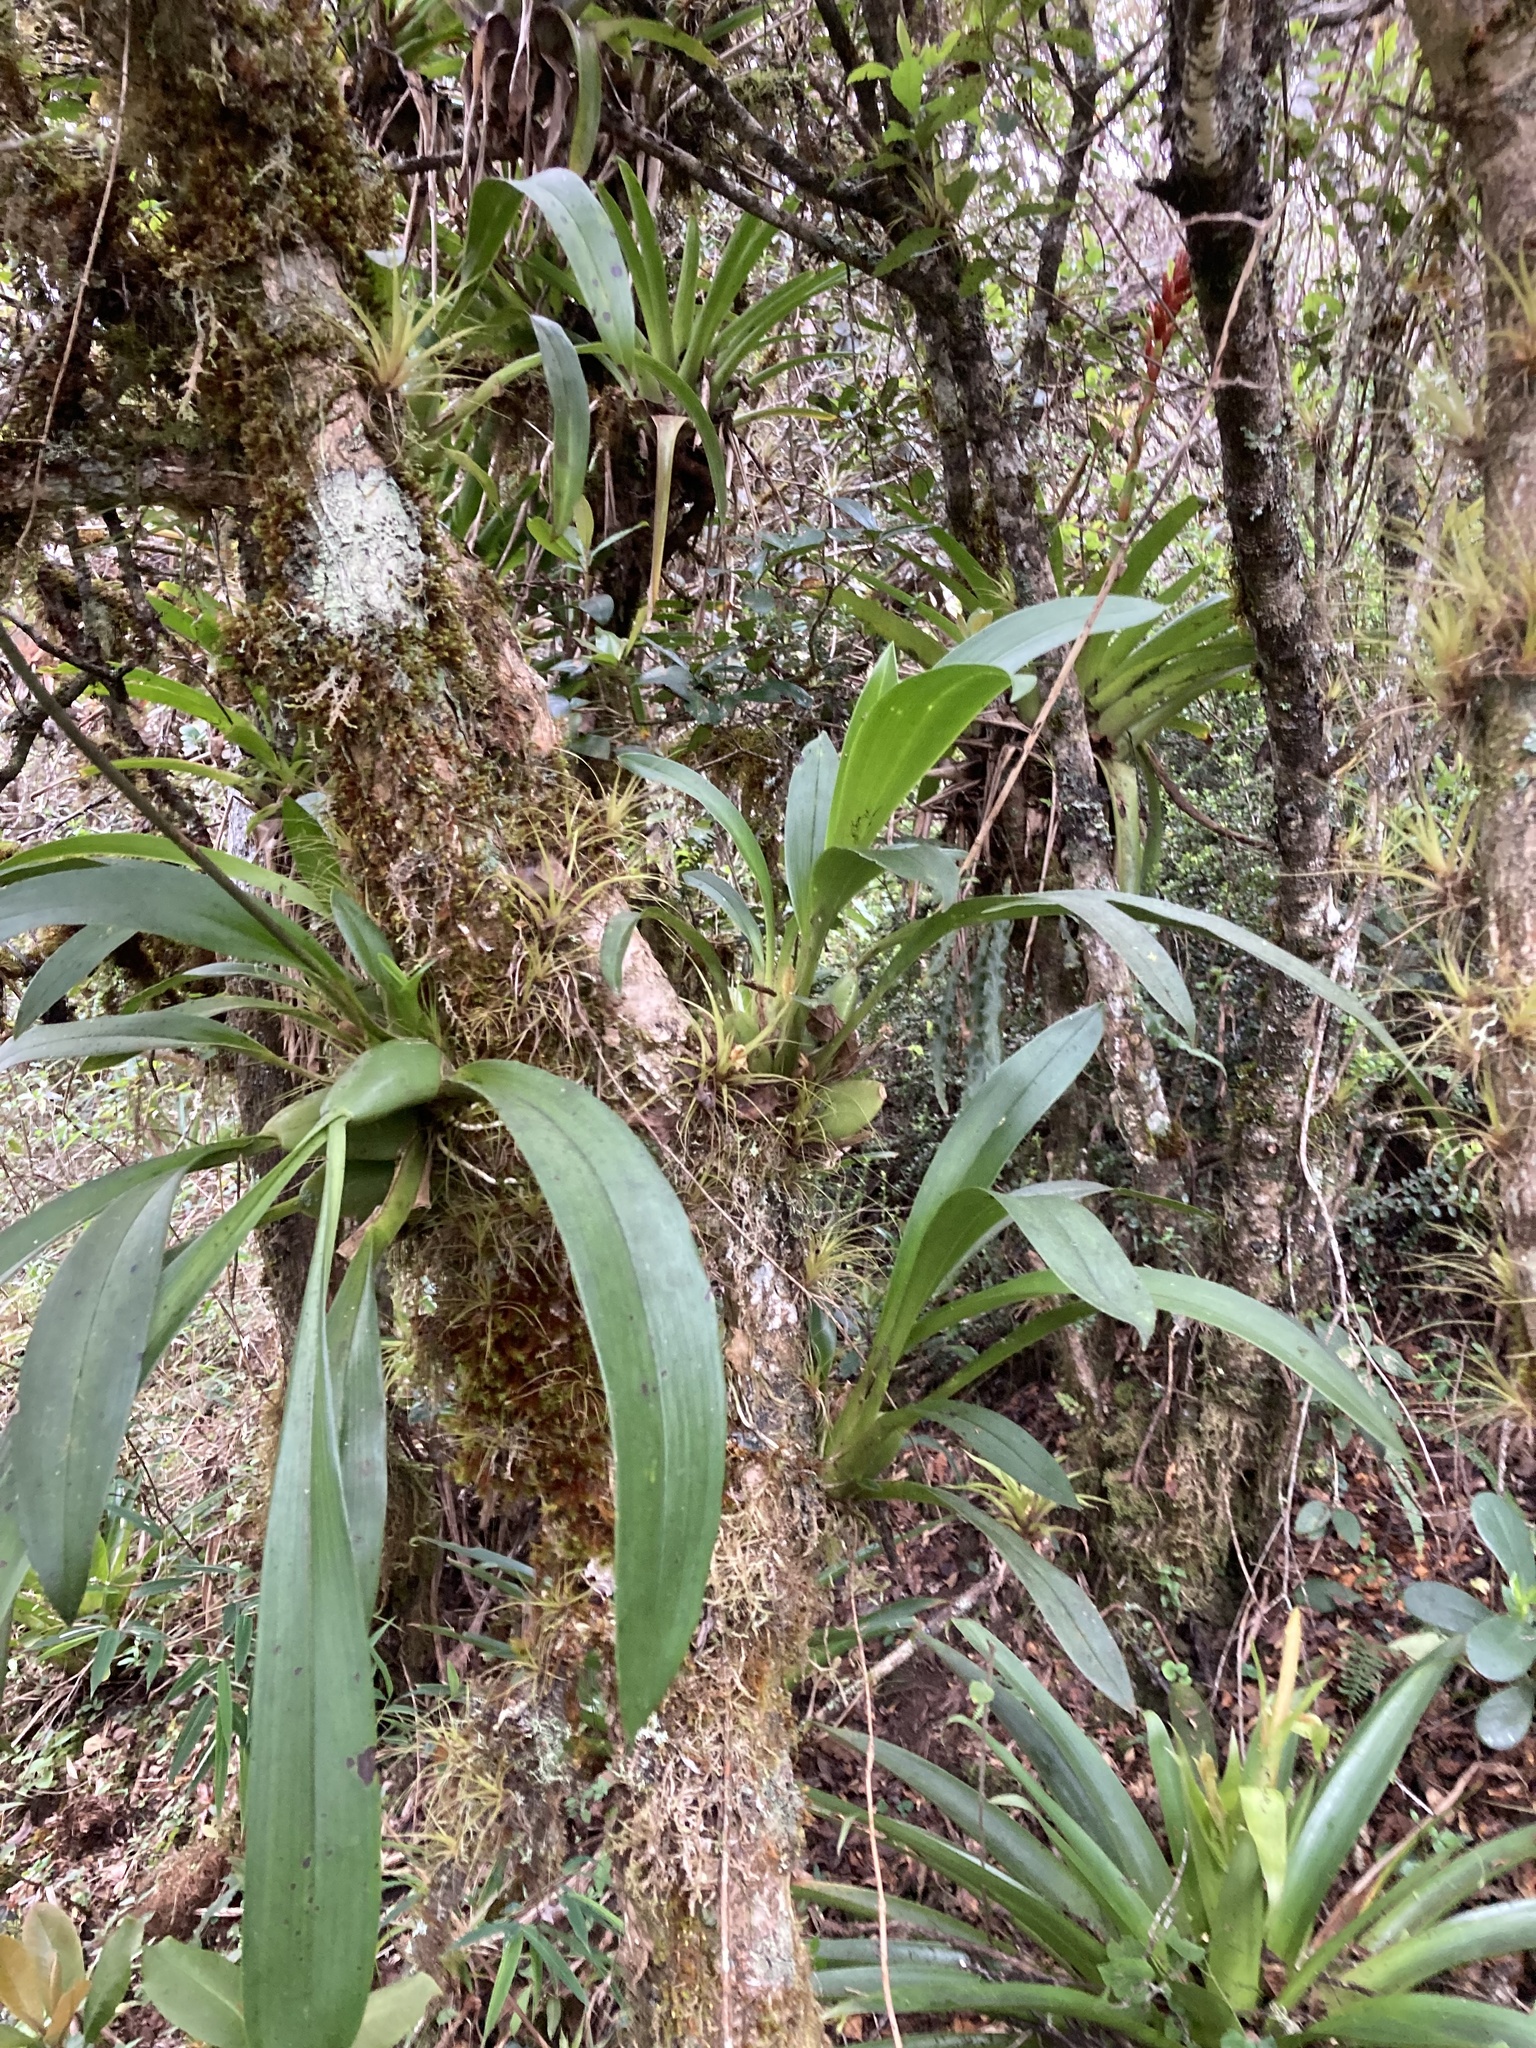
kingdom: Plantae
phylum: Tracheophyta
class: Liliopsida
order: Asparagales
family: Orchidaceae
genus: Caucaea
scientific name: Caucaea nubigena
